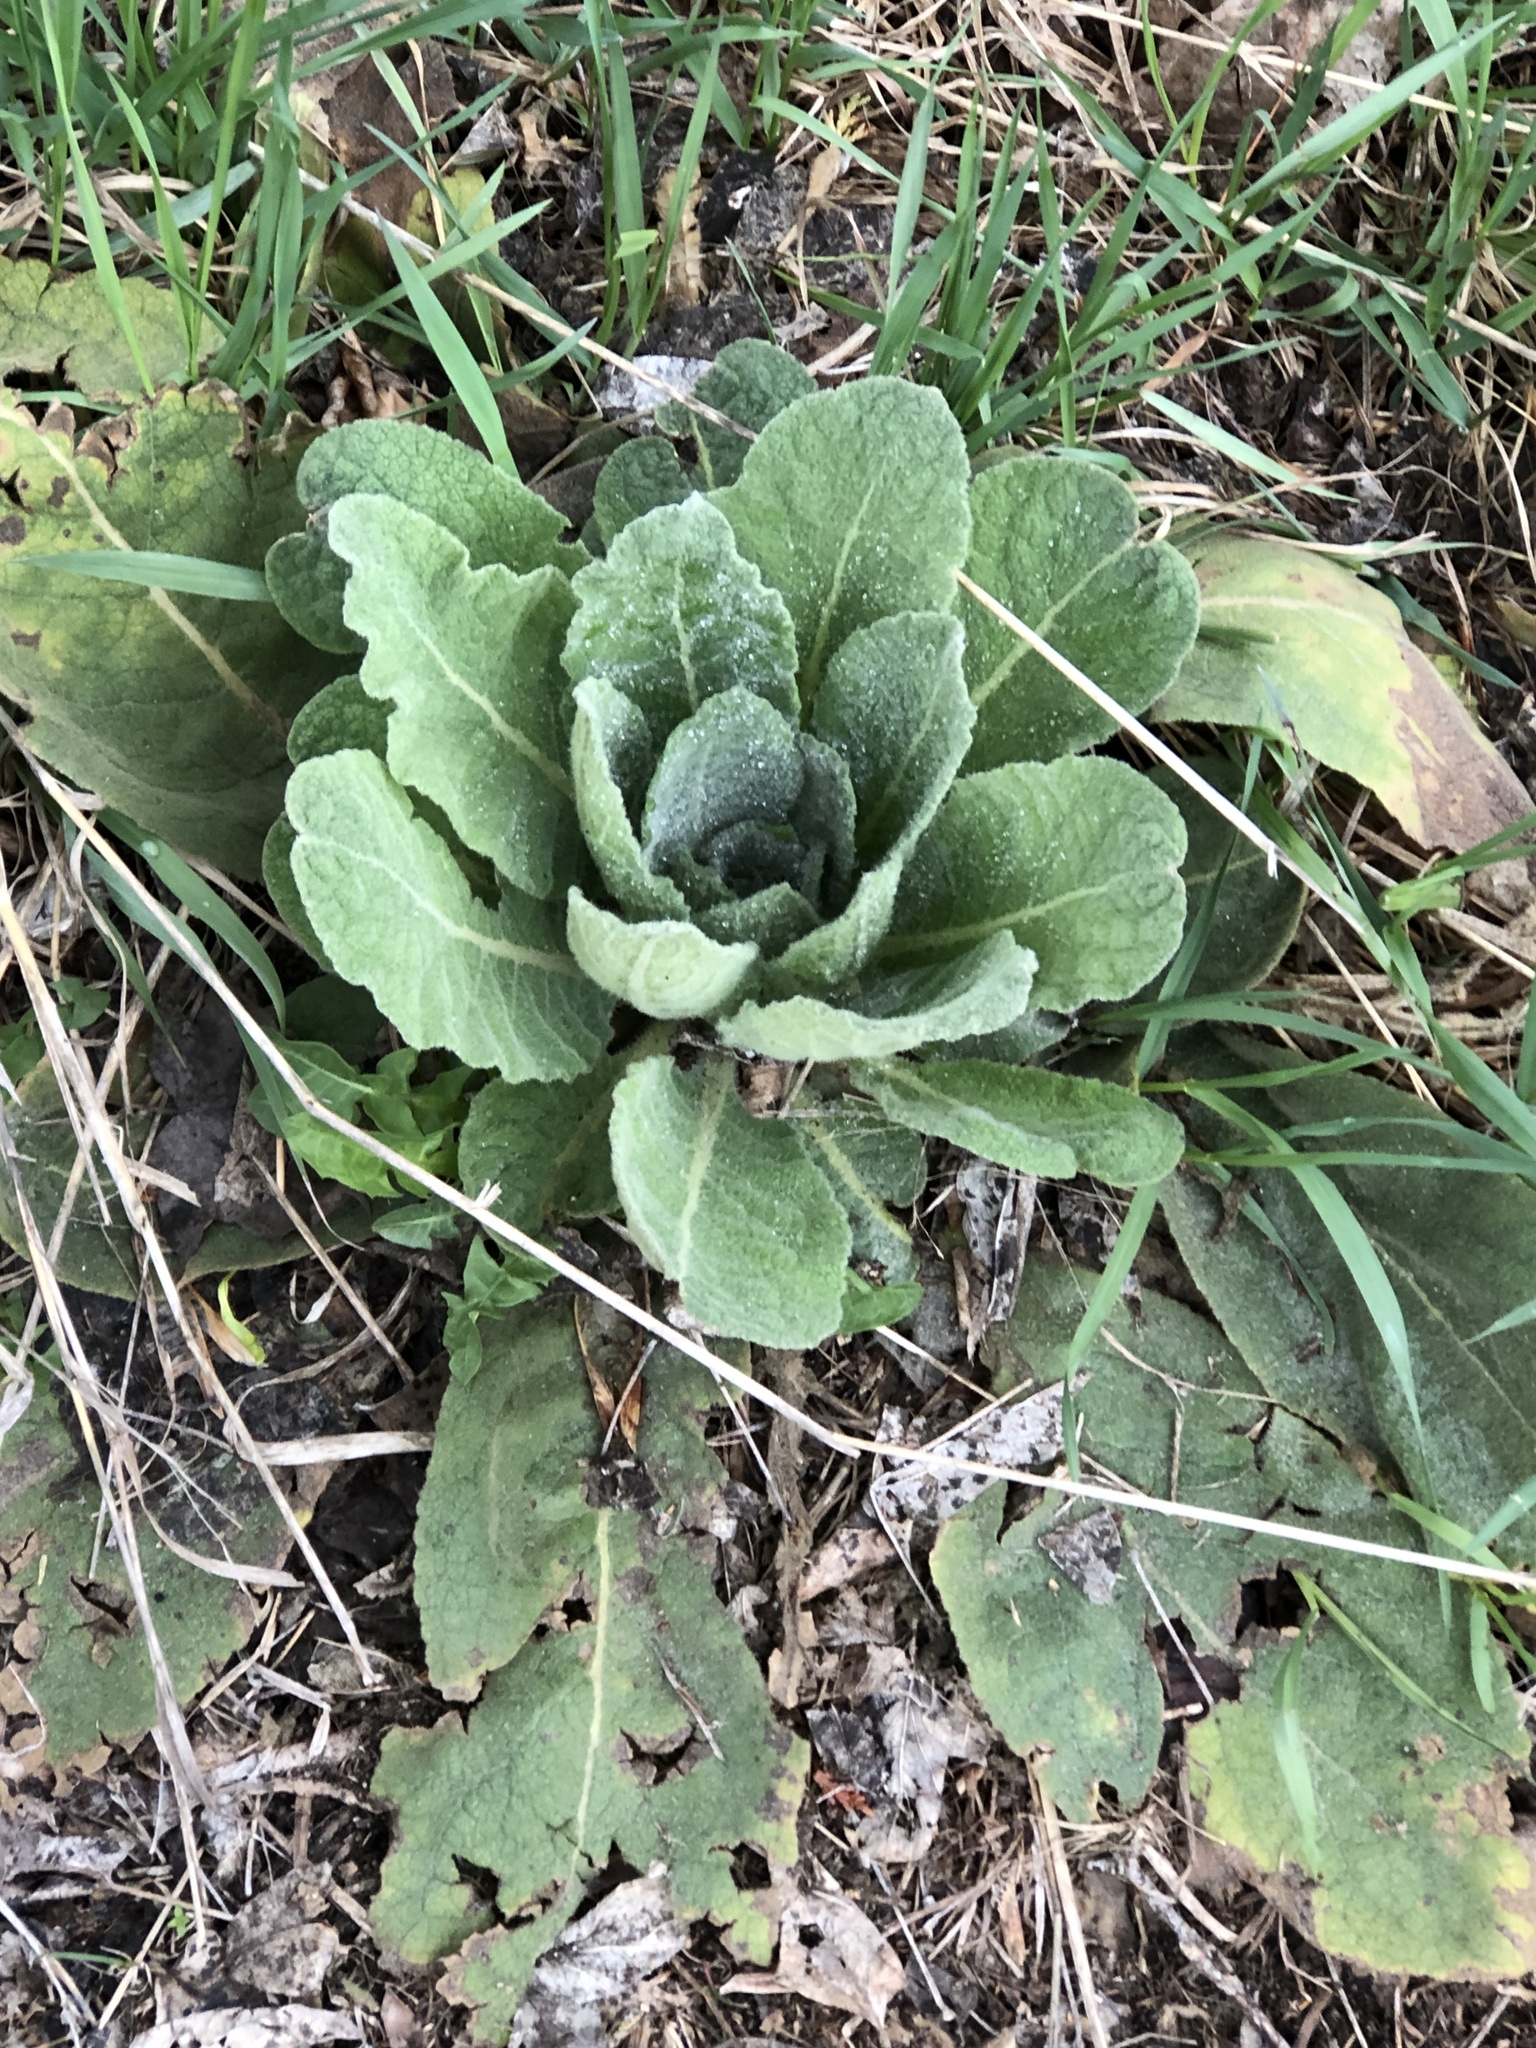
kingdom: Plantae
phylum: Tracheophyta
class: Magnoliopsida
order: Lamiales
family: Scrophulariaceae
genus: Verbascum
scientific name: Verbascum thapsus
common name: Common mullein
